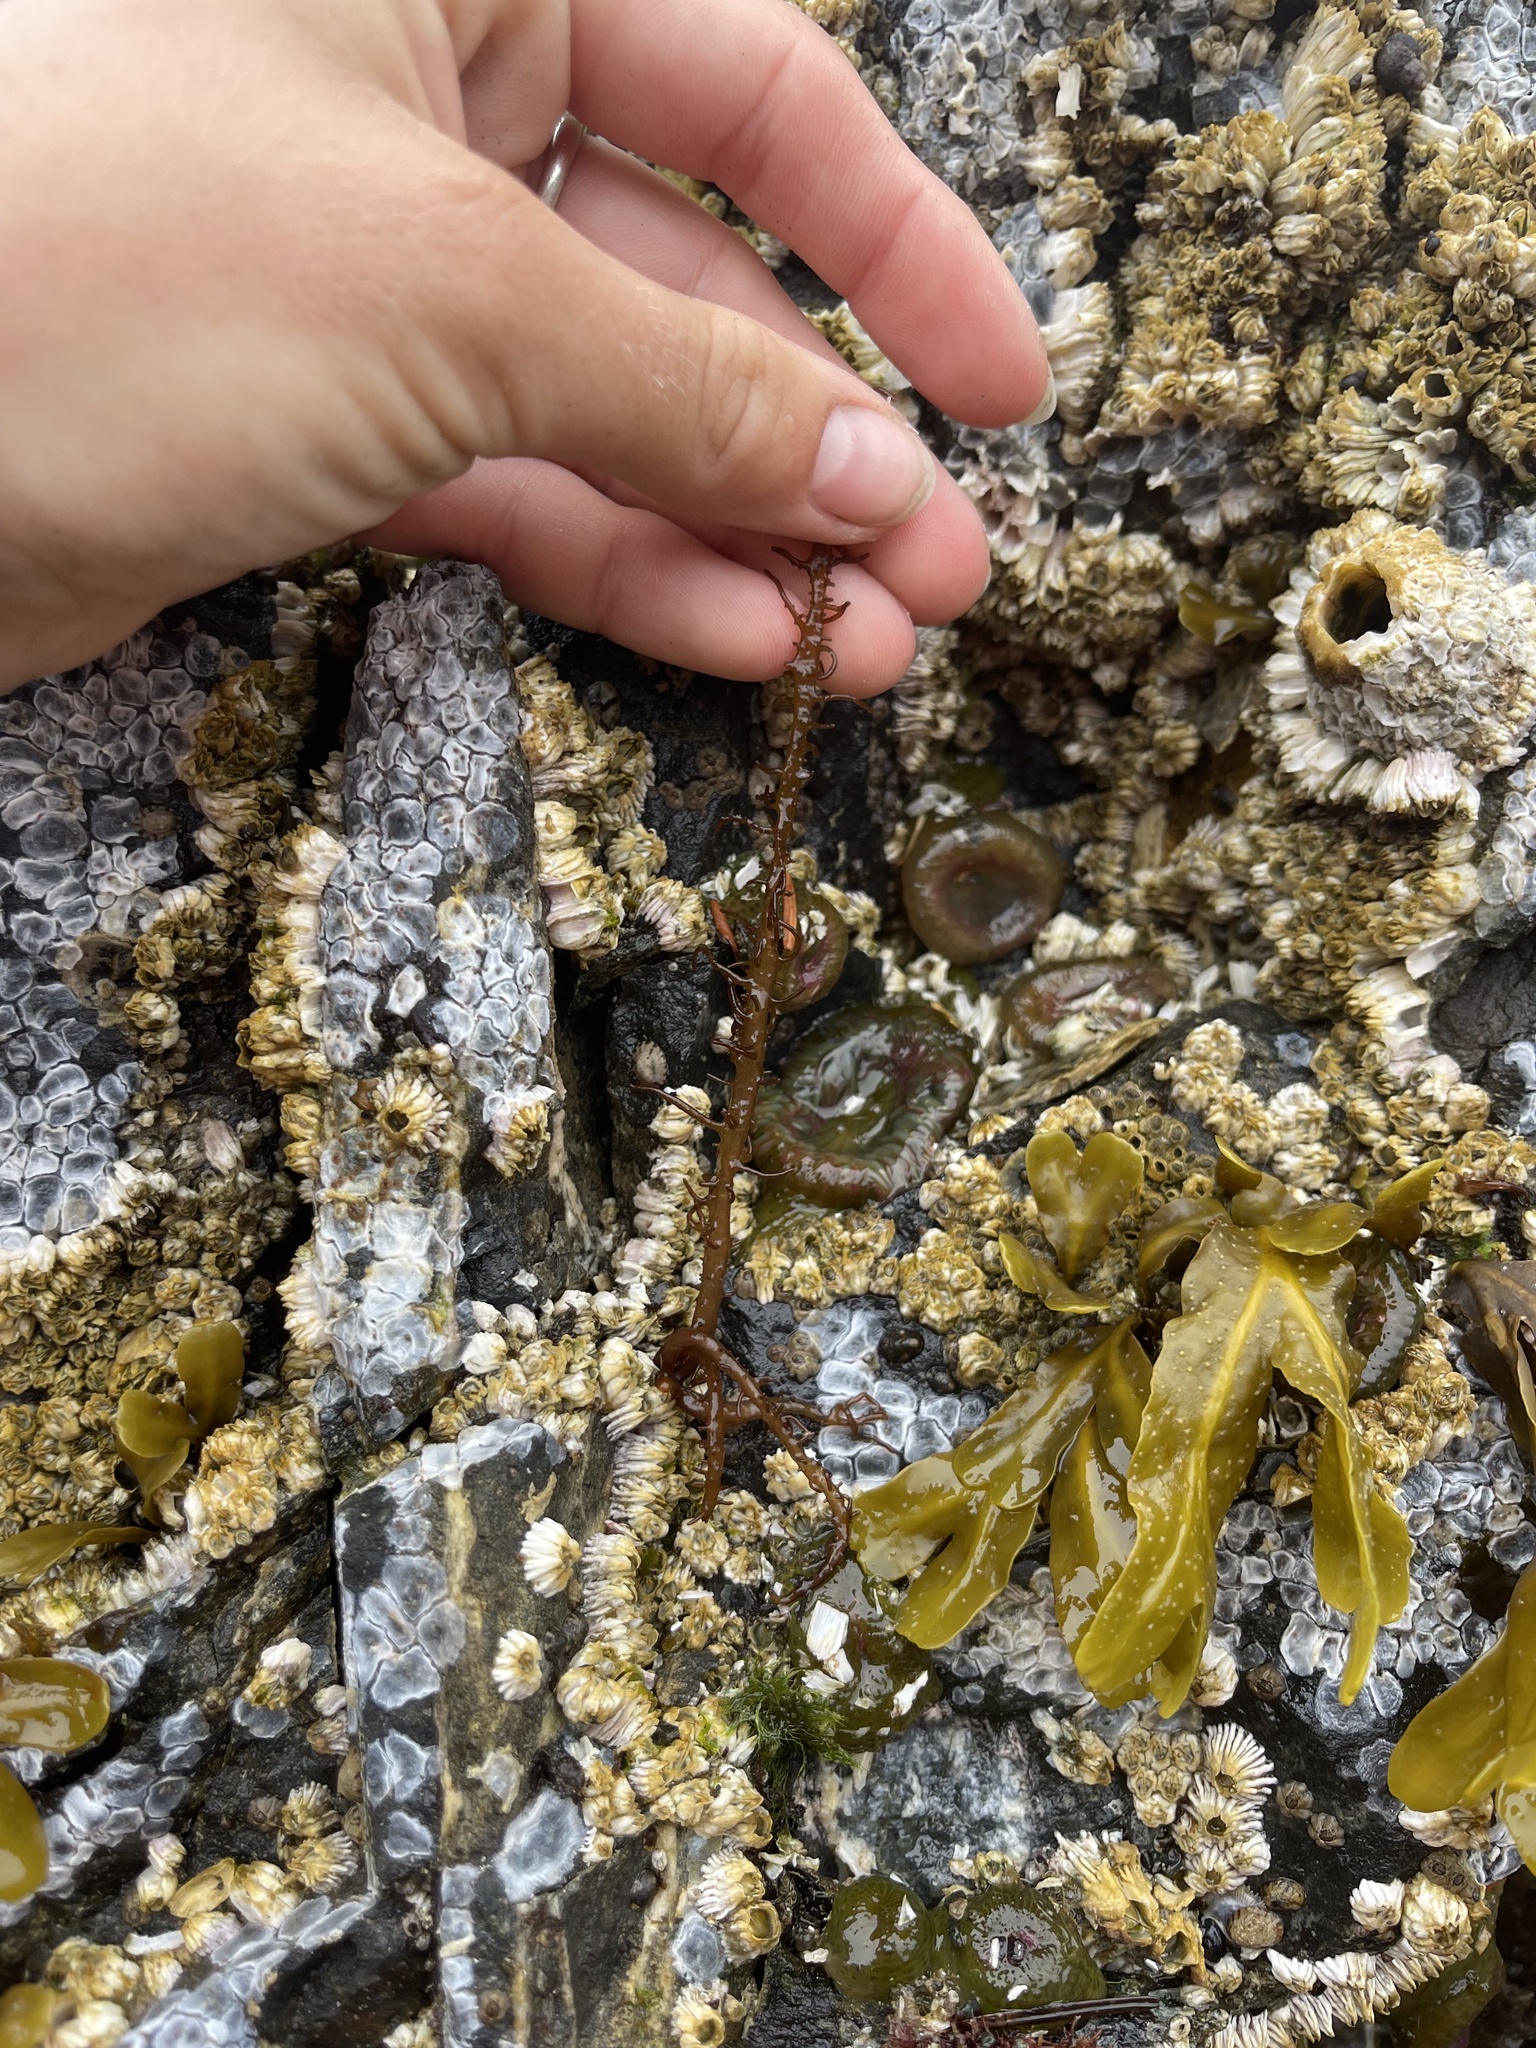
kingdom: Plantae
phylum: Rhodophyta
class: Florideophyceae
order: Nemaliales
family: Liagoraceae
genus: Cumagloia
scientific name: Cumagloia andersonii
